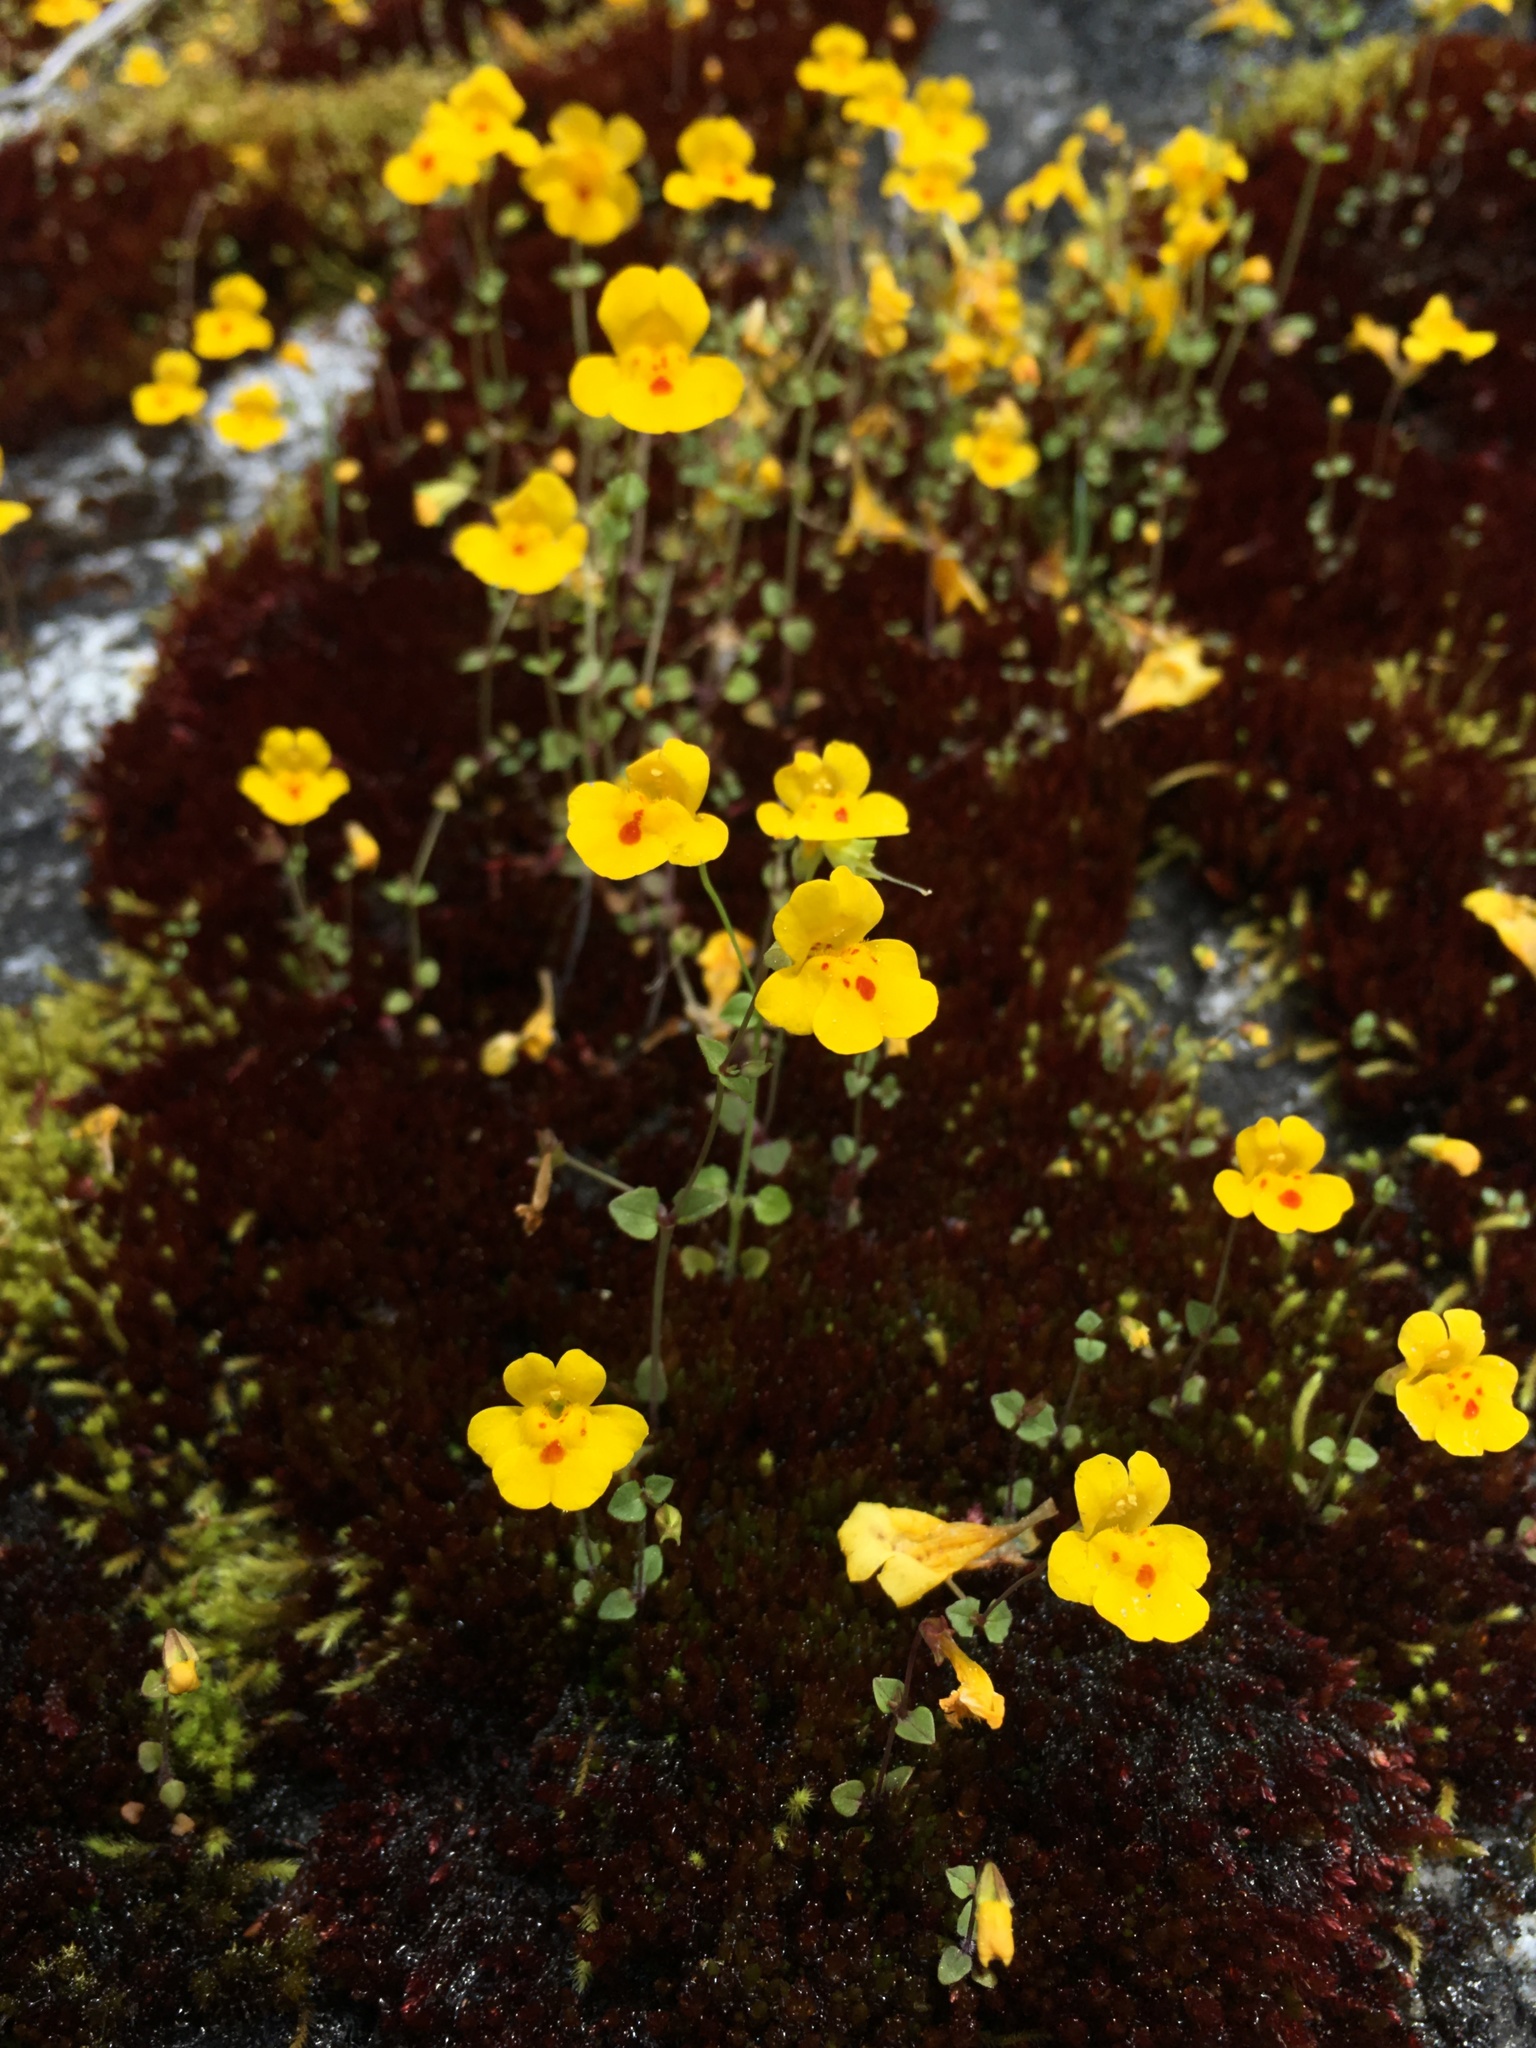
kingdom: Plantae
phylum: Tracheophyta
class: Magnoliopsida
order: Lamiales
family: Phrymaceae
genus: Erythranthe
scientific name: Erythranthe microphylla
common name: Bentham's monkeyflower
